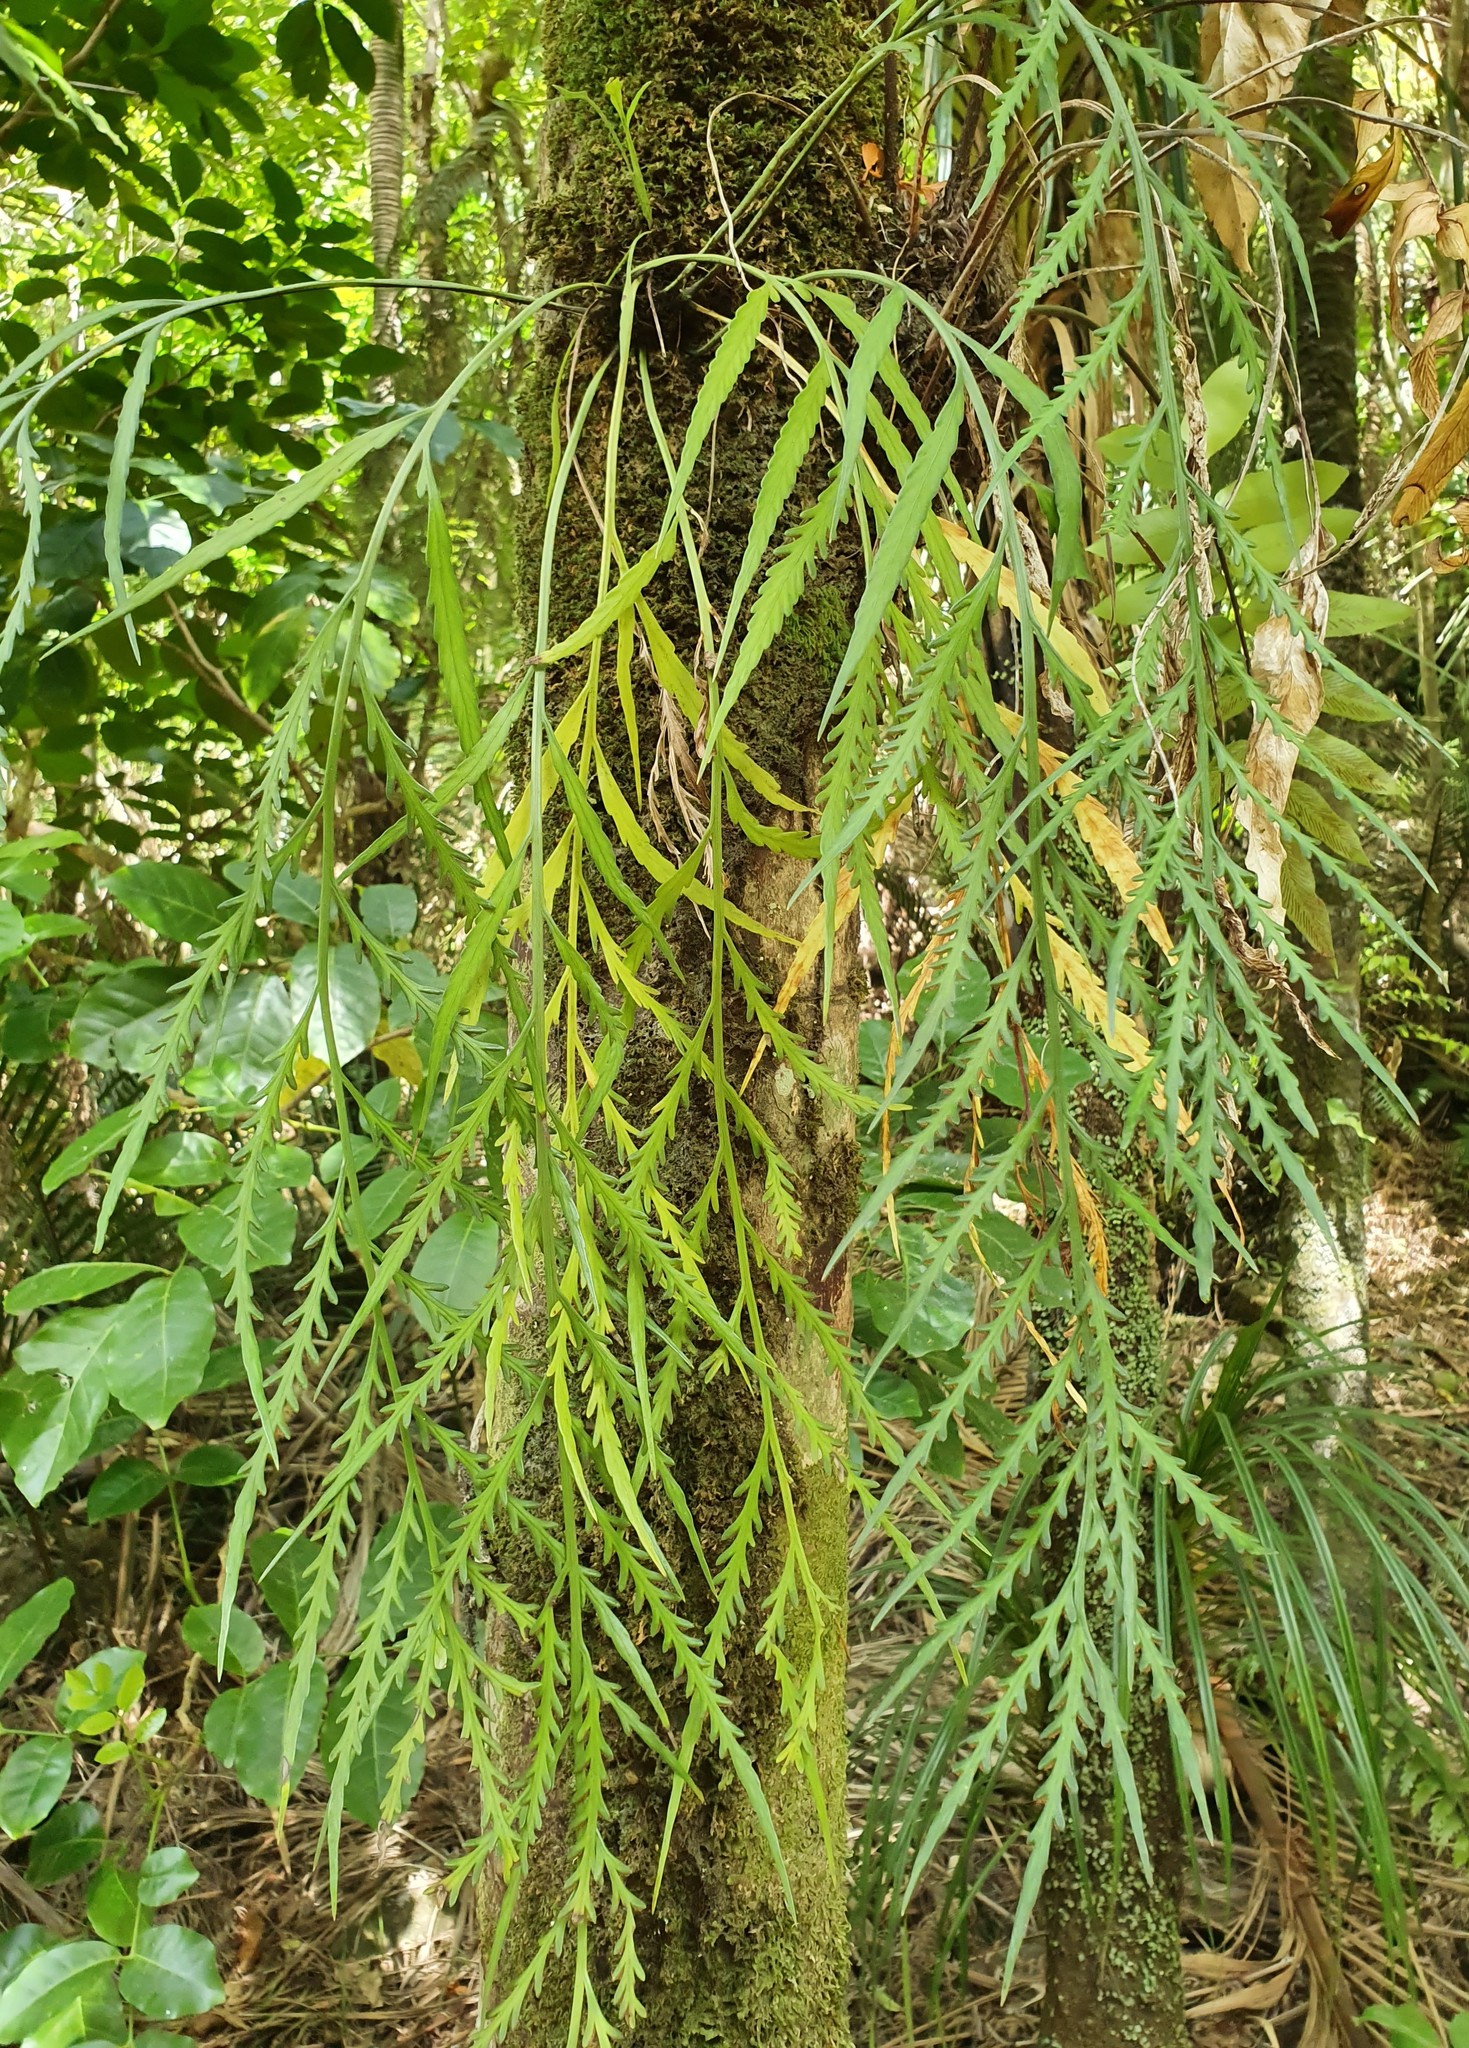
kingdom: Plantae
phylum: Tracheophyta
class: Polypodiopsida
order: Polypodiales
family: Aspleniaceae
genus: Asplenium
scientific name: Asplenium flaccidum
